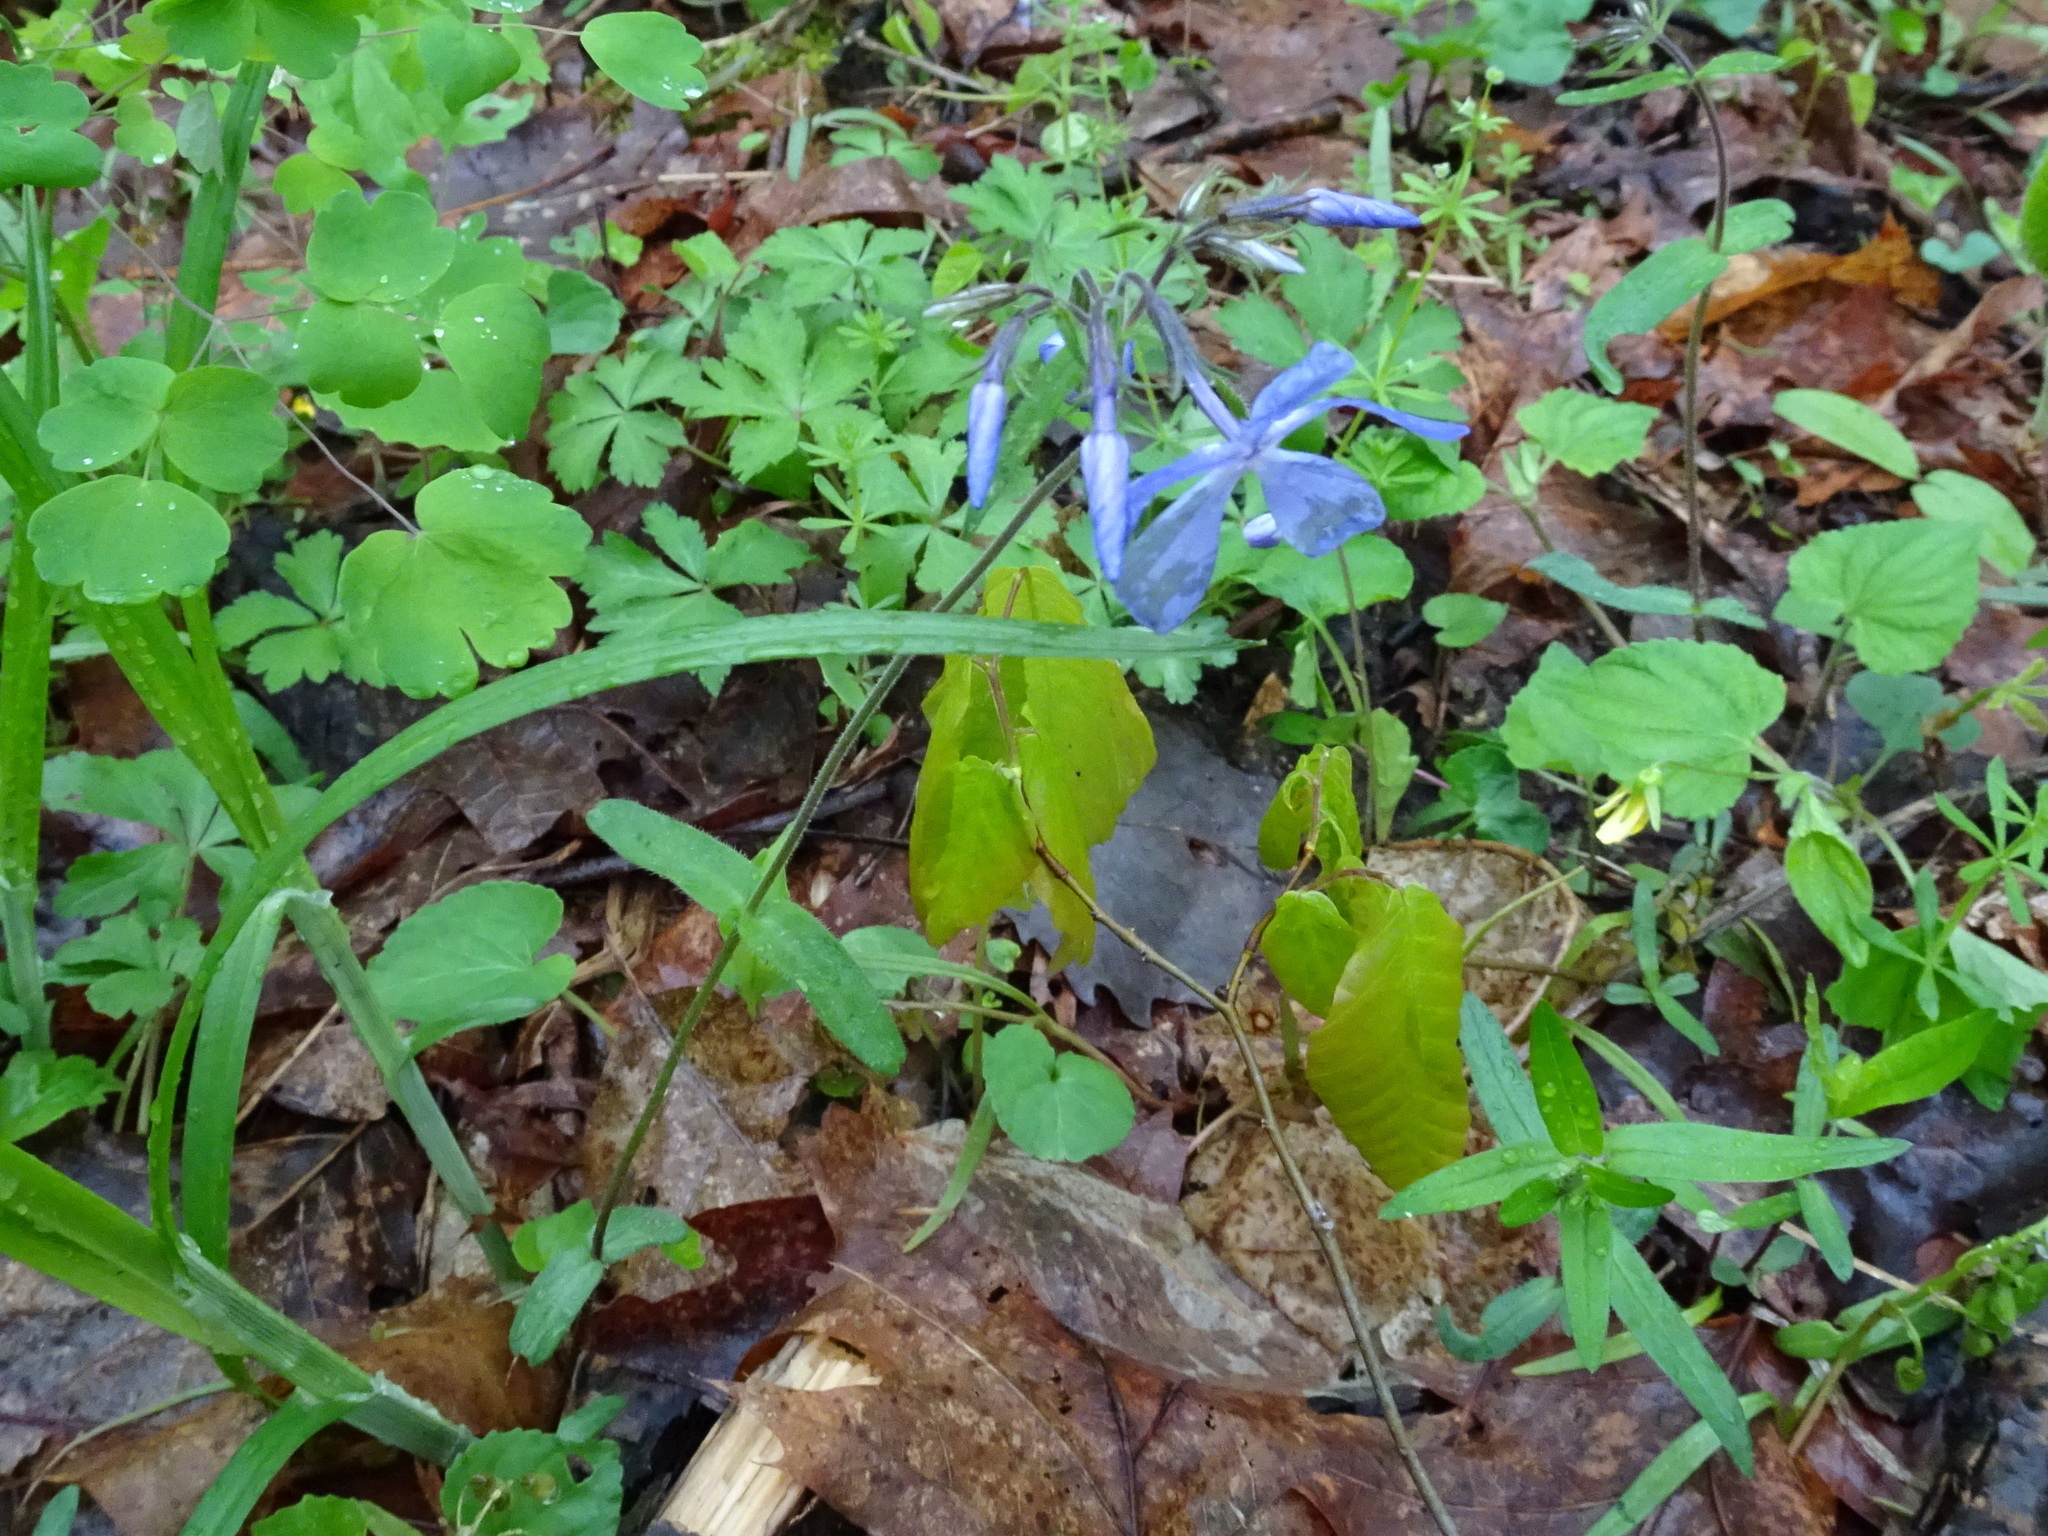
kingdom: Plantae
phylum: Tracheophyta
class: Magnoliopsida
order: Ericales
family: Polemoniaceae
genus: Phlox
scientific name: Phlox divaricata
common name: Blue phlox
